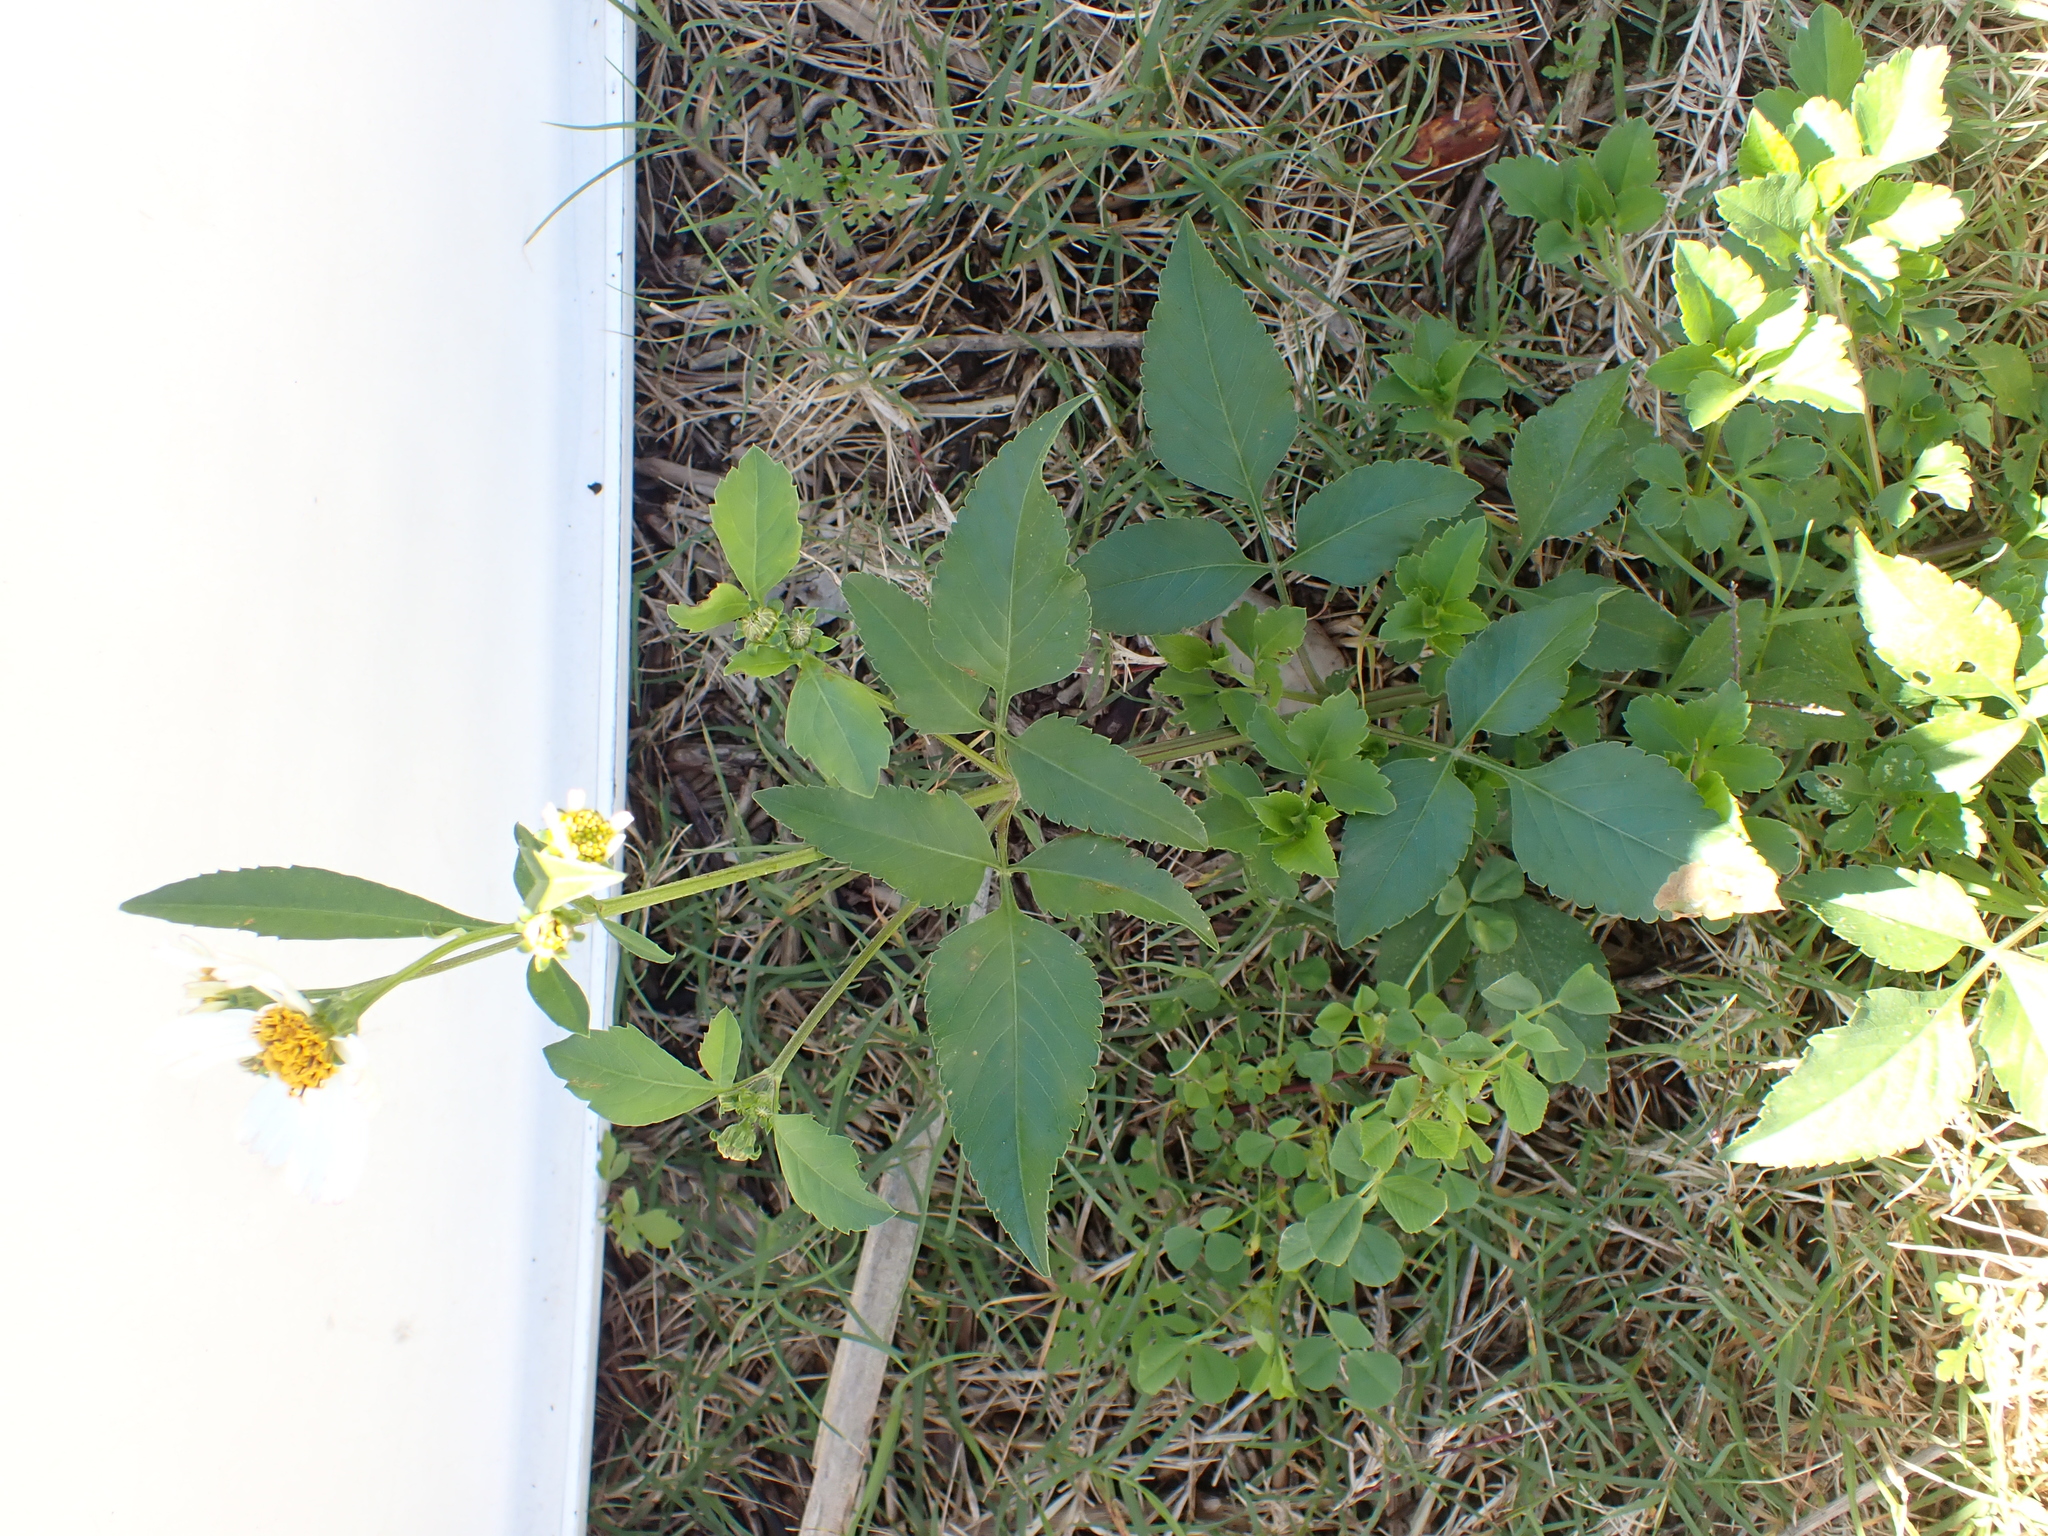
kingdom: Plantae
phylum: Tracheophyta
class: Magnoliopsida
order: Asterales
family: Asteraceae
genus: Bidens
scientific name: Bidens alba
